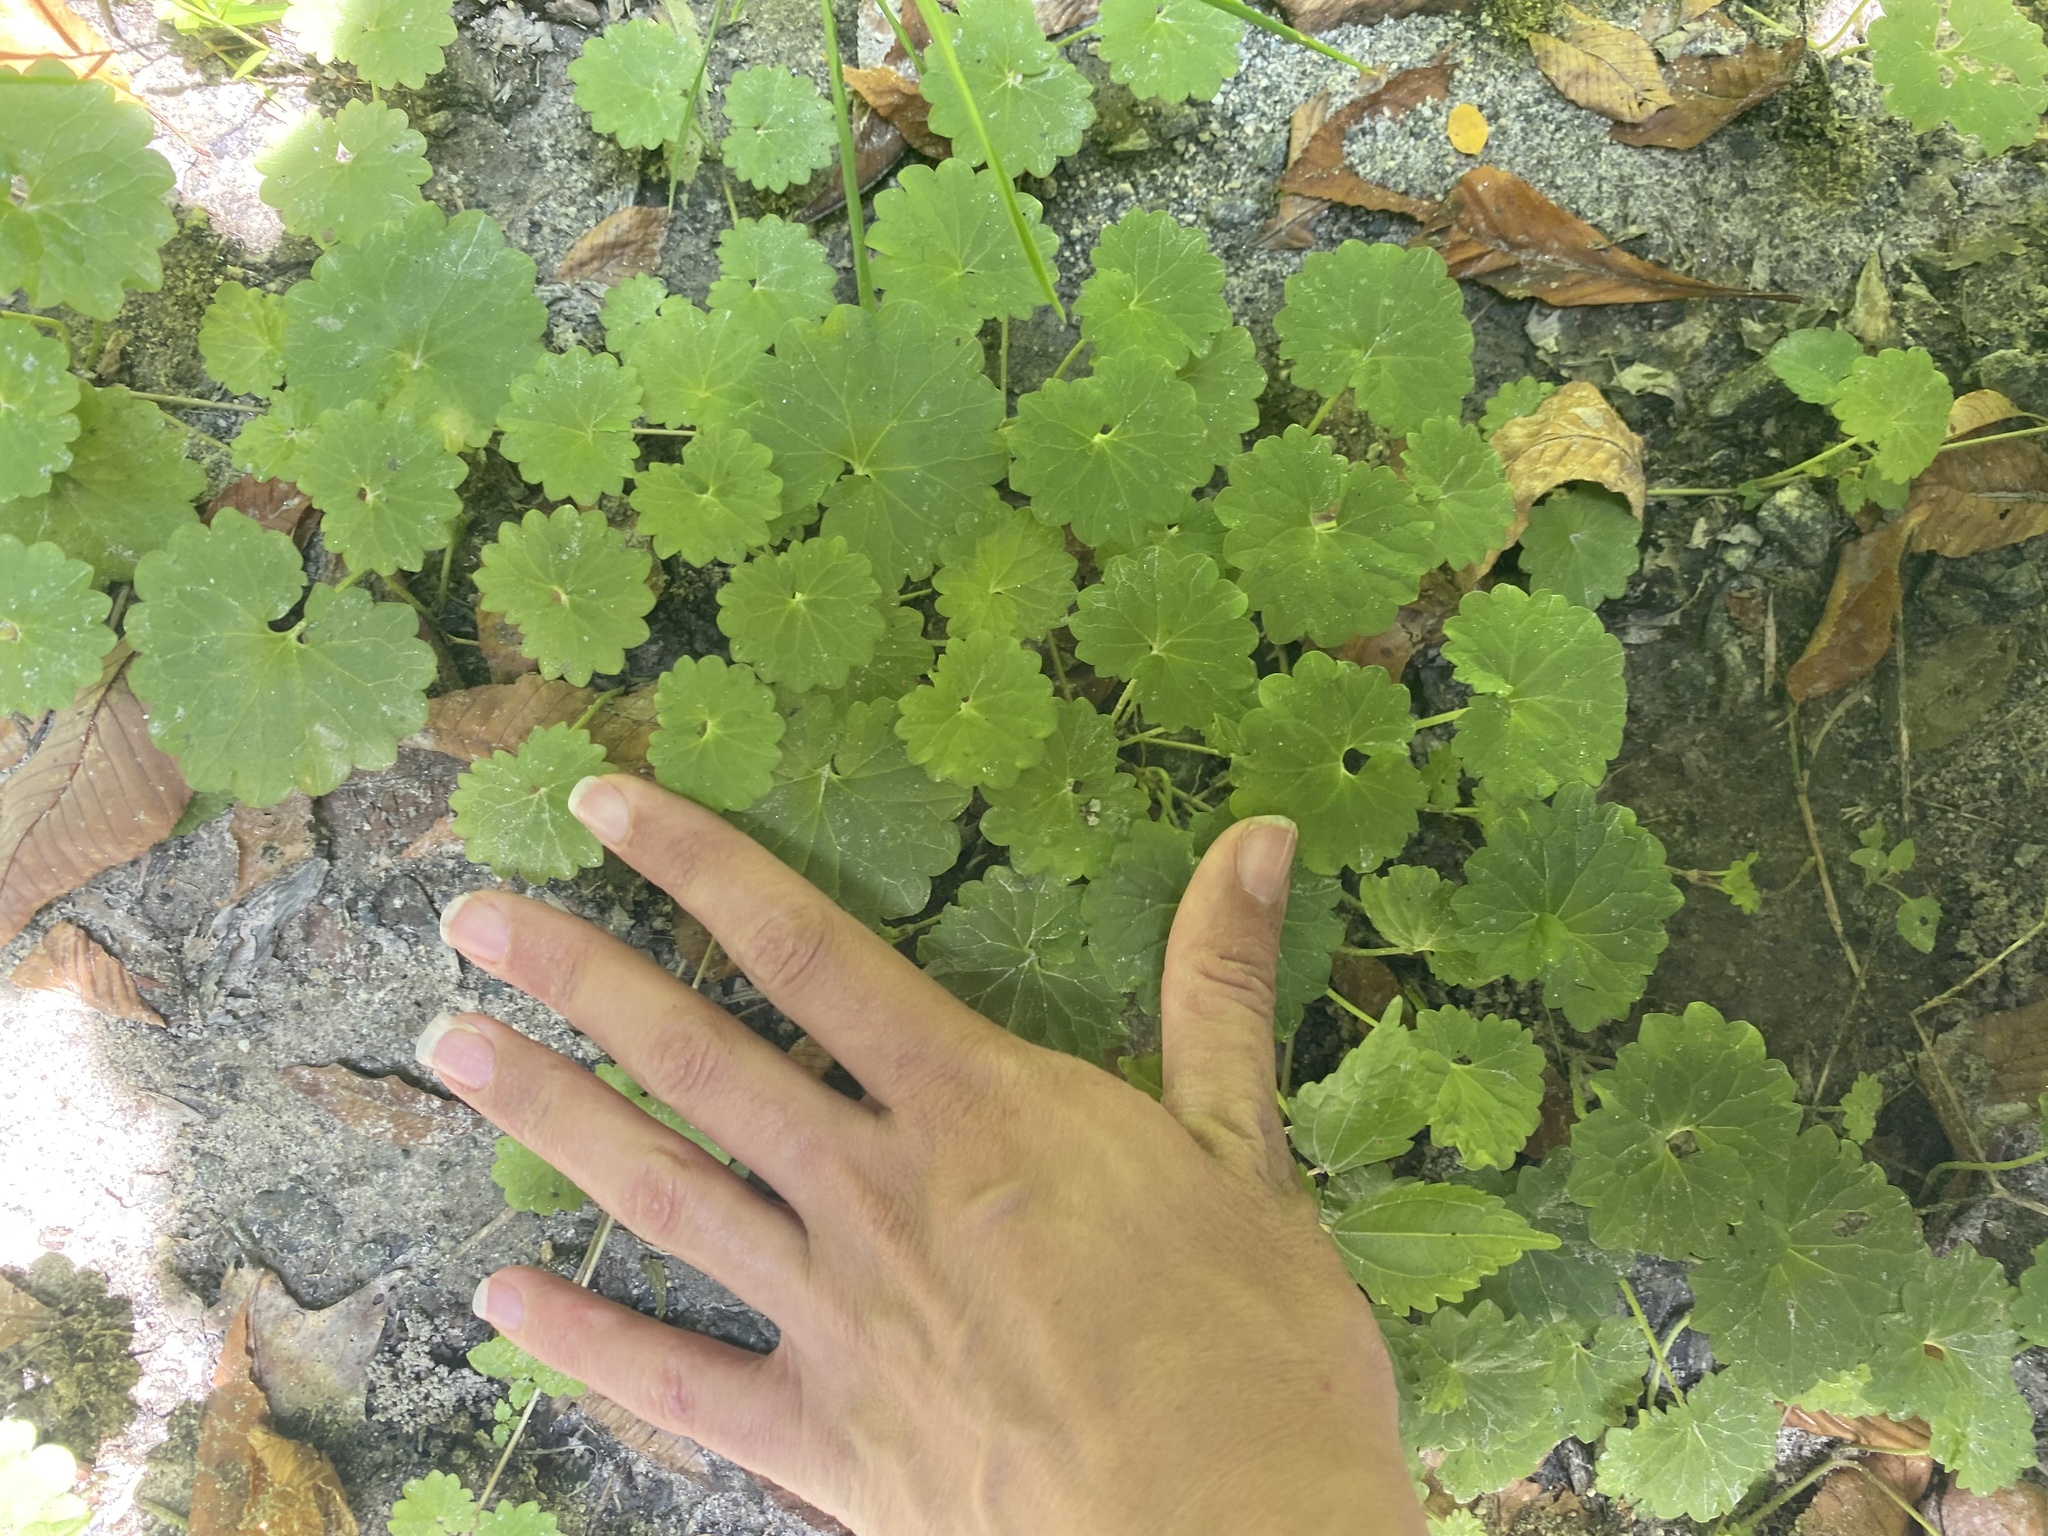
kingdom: Plantae
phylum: Tracheophyta
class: Magnoliopsida
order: Lamiales
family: Lamiaceae
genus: Glechoma
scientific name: Glechoma hederacea
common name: Ground ivy
